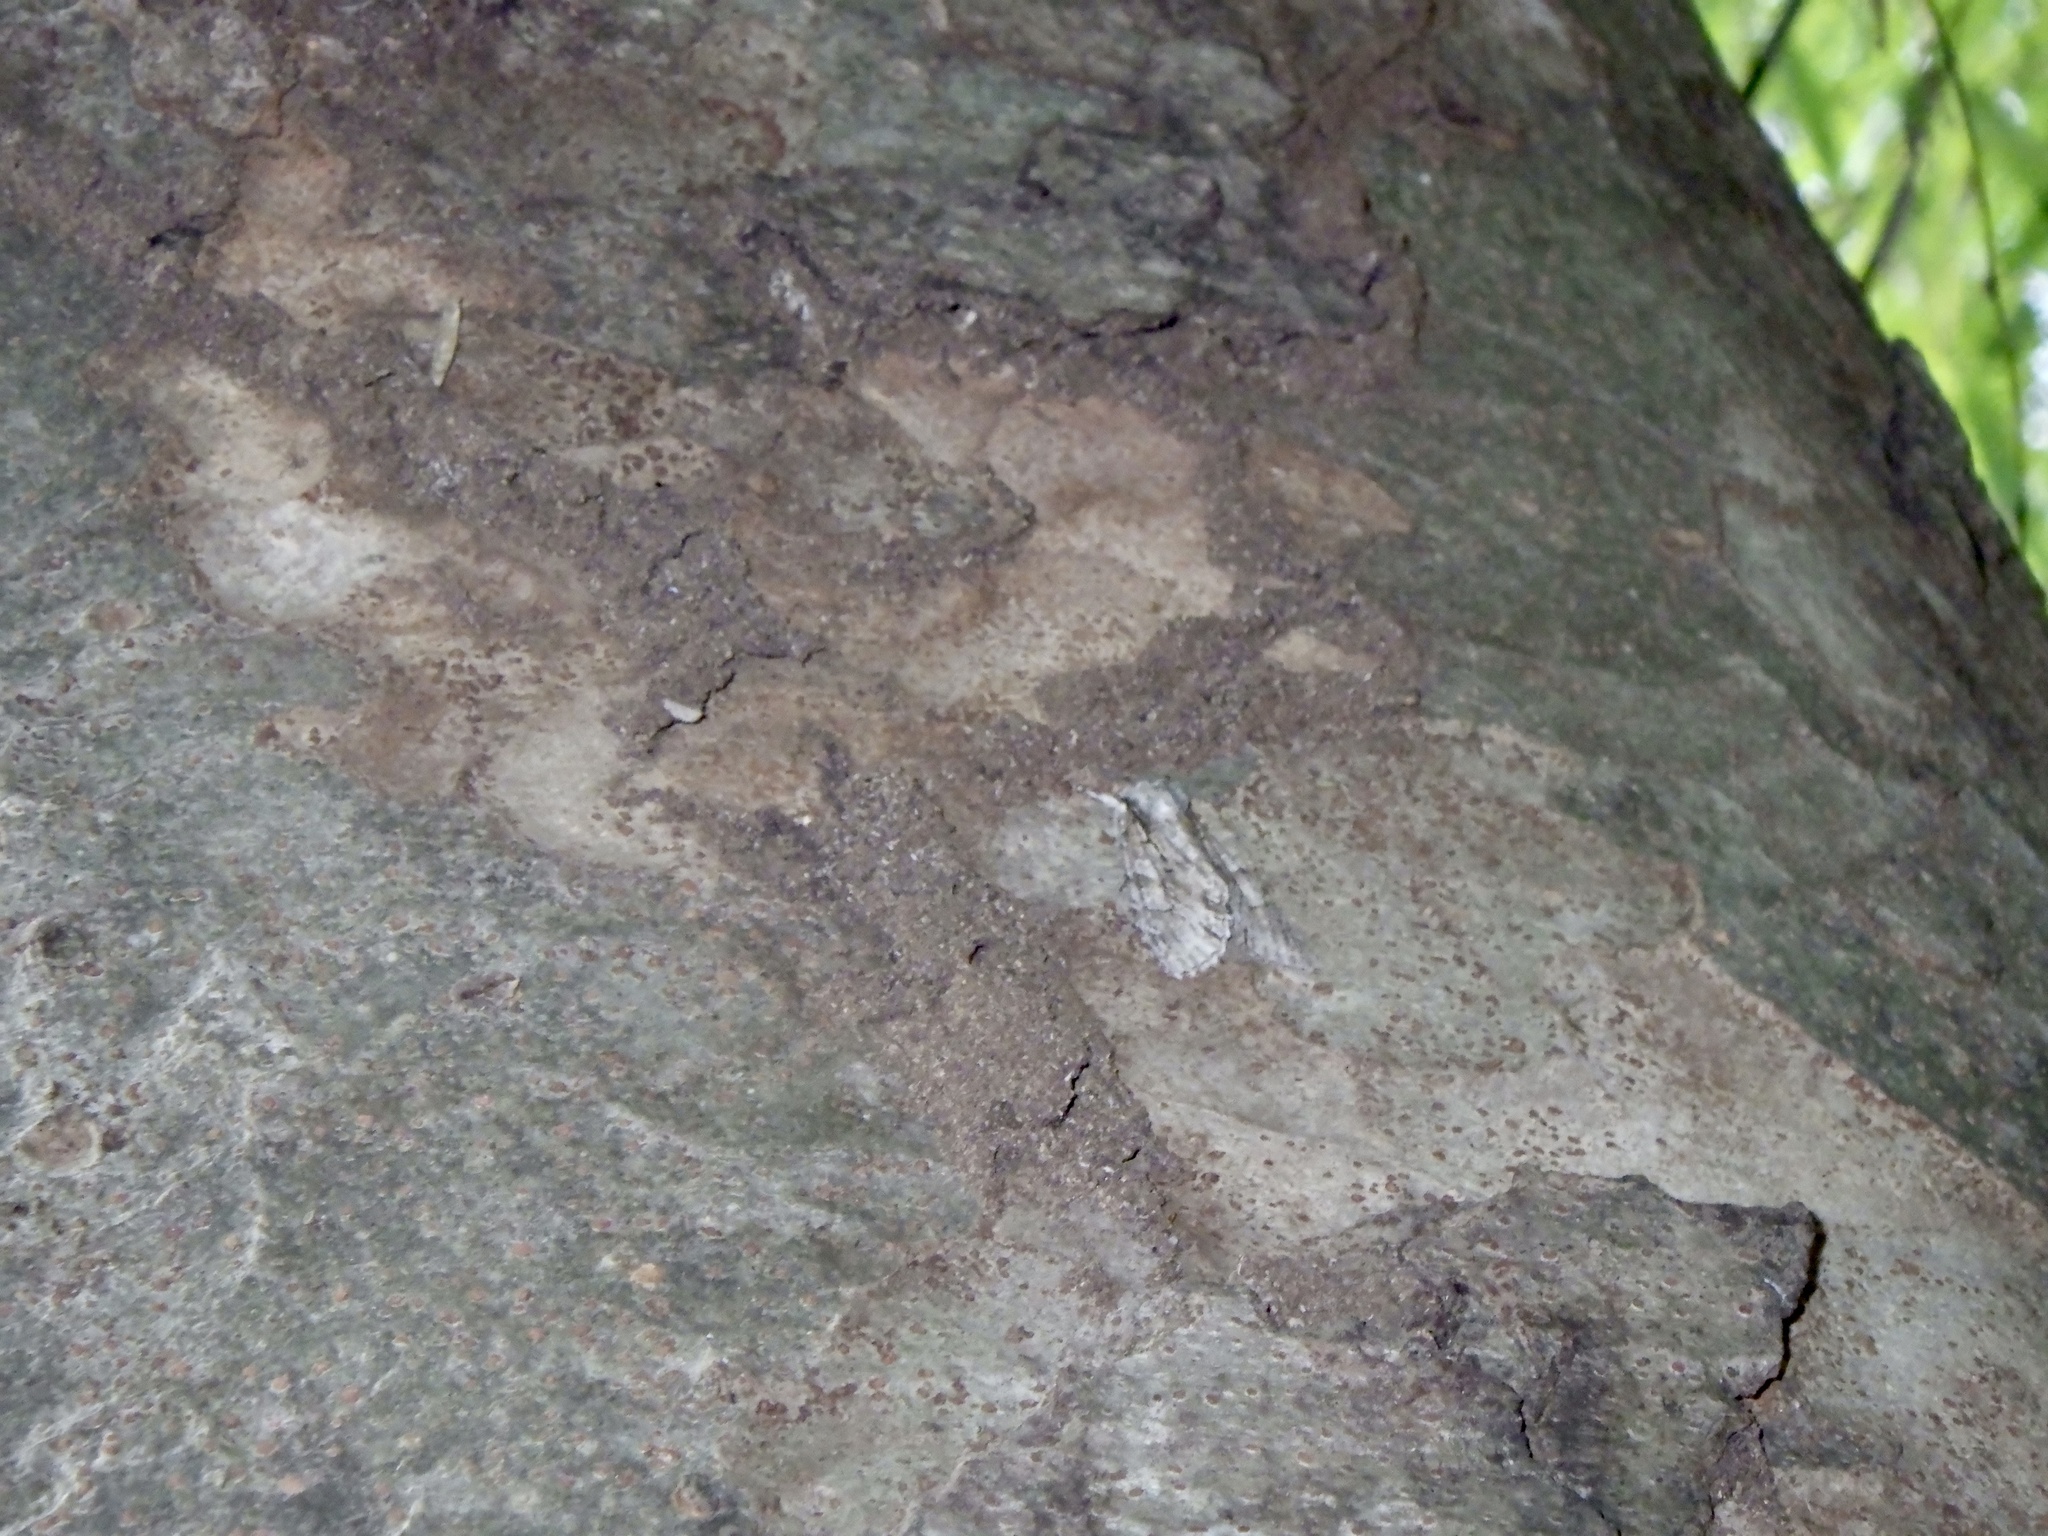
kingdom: Animalia
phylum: Arthropoda
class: Insecta
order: Lepidoptera
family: Noctuidae
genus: Meganephria
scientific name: Meganephria
